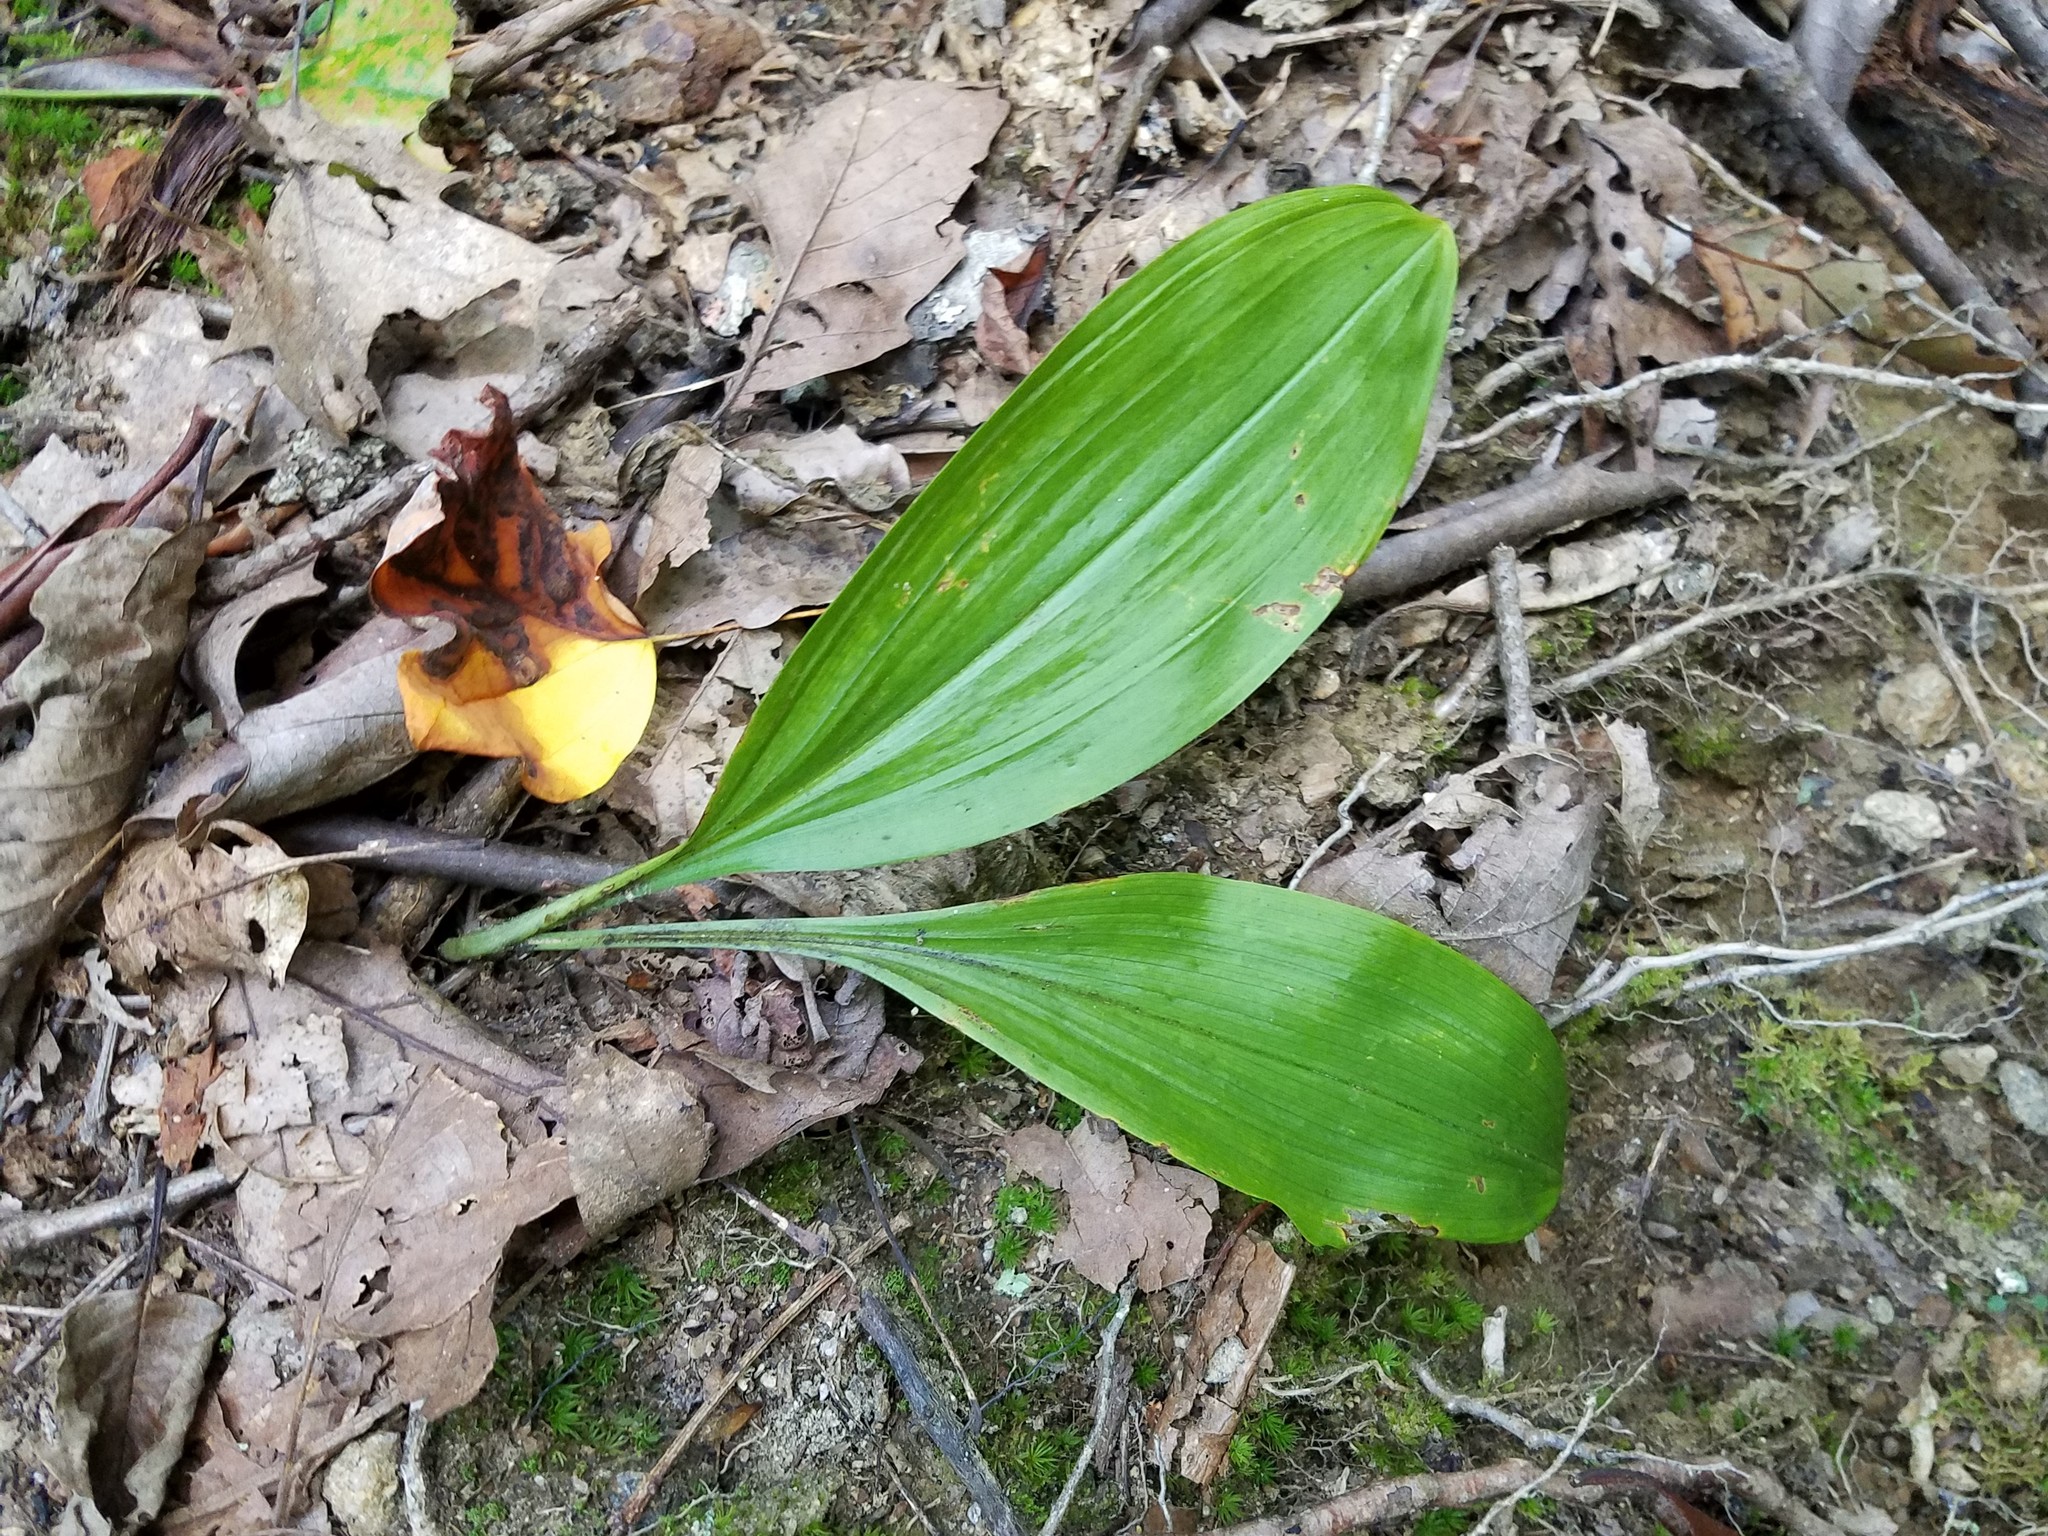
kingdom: Plantae
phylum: Tracheophyta
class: Liliopsida
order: Asparagales
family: Asparagaceae
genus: Convallaria
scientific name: Convallaria majalis
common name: Lily-of-the-valley
